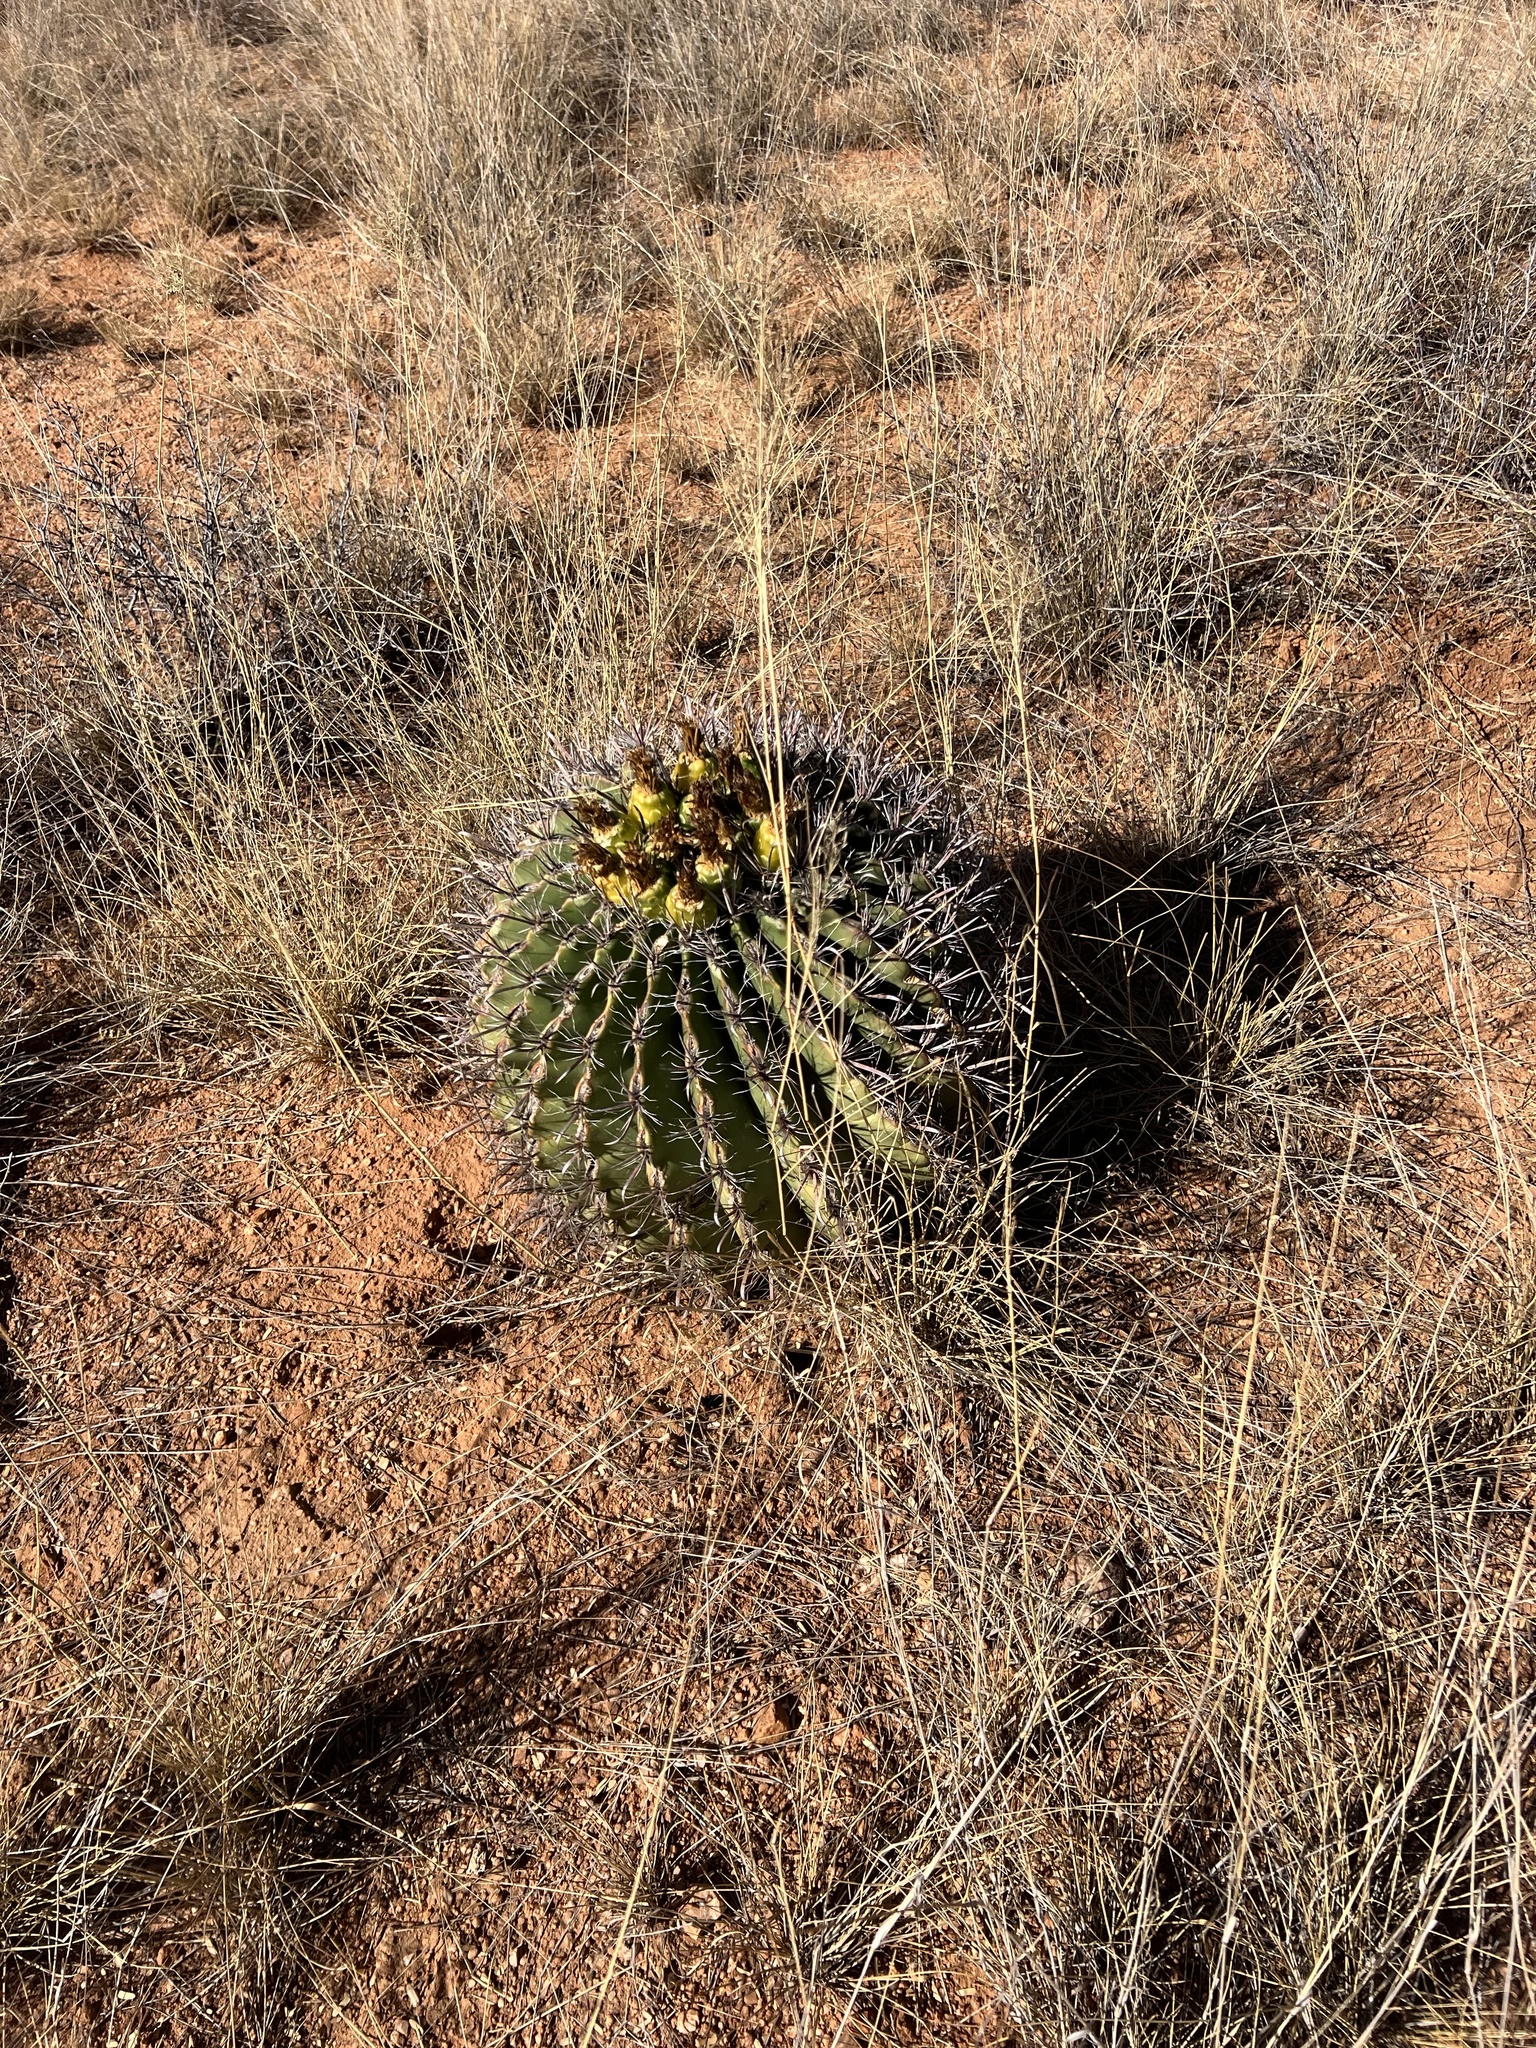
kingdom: Plantae
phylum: Tracheophyta
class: Magnoliopsida
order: Caryophyllales
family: Cactaceae
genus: Ferocactus
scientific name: Ferocactus wislizeni
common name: Candy barrel cactus
